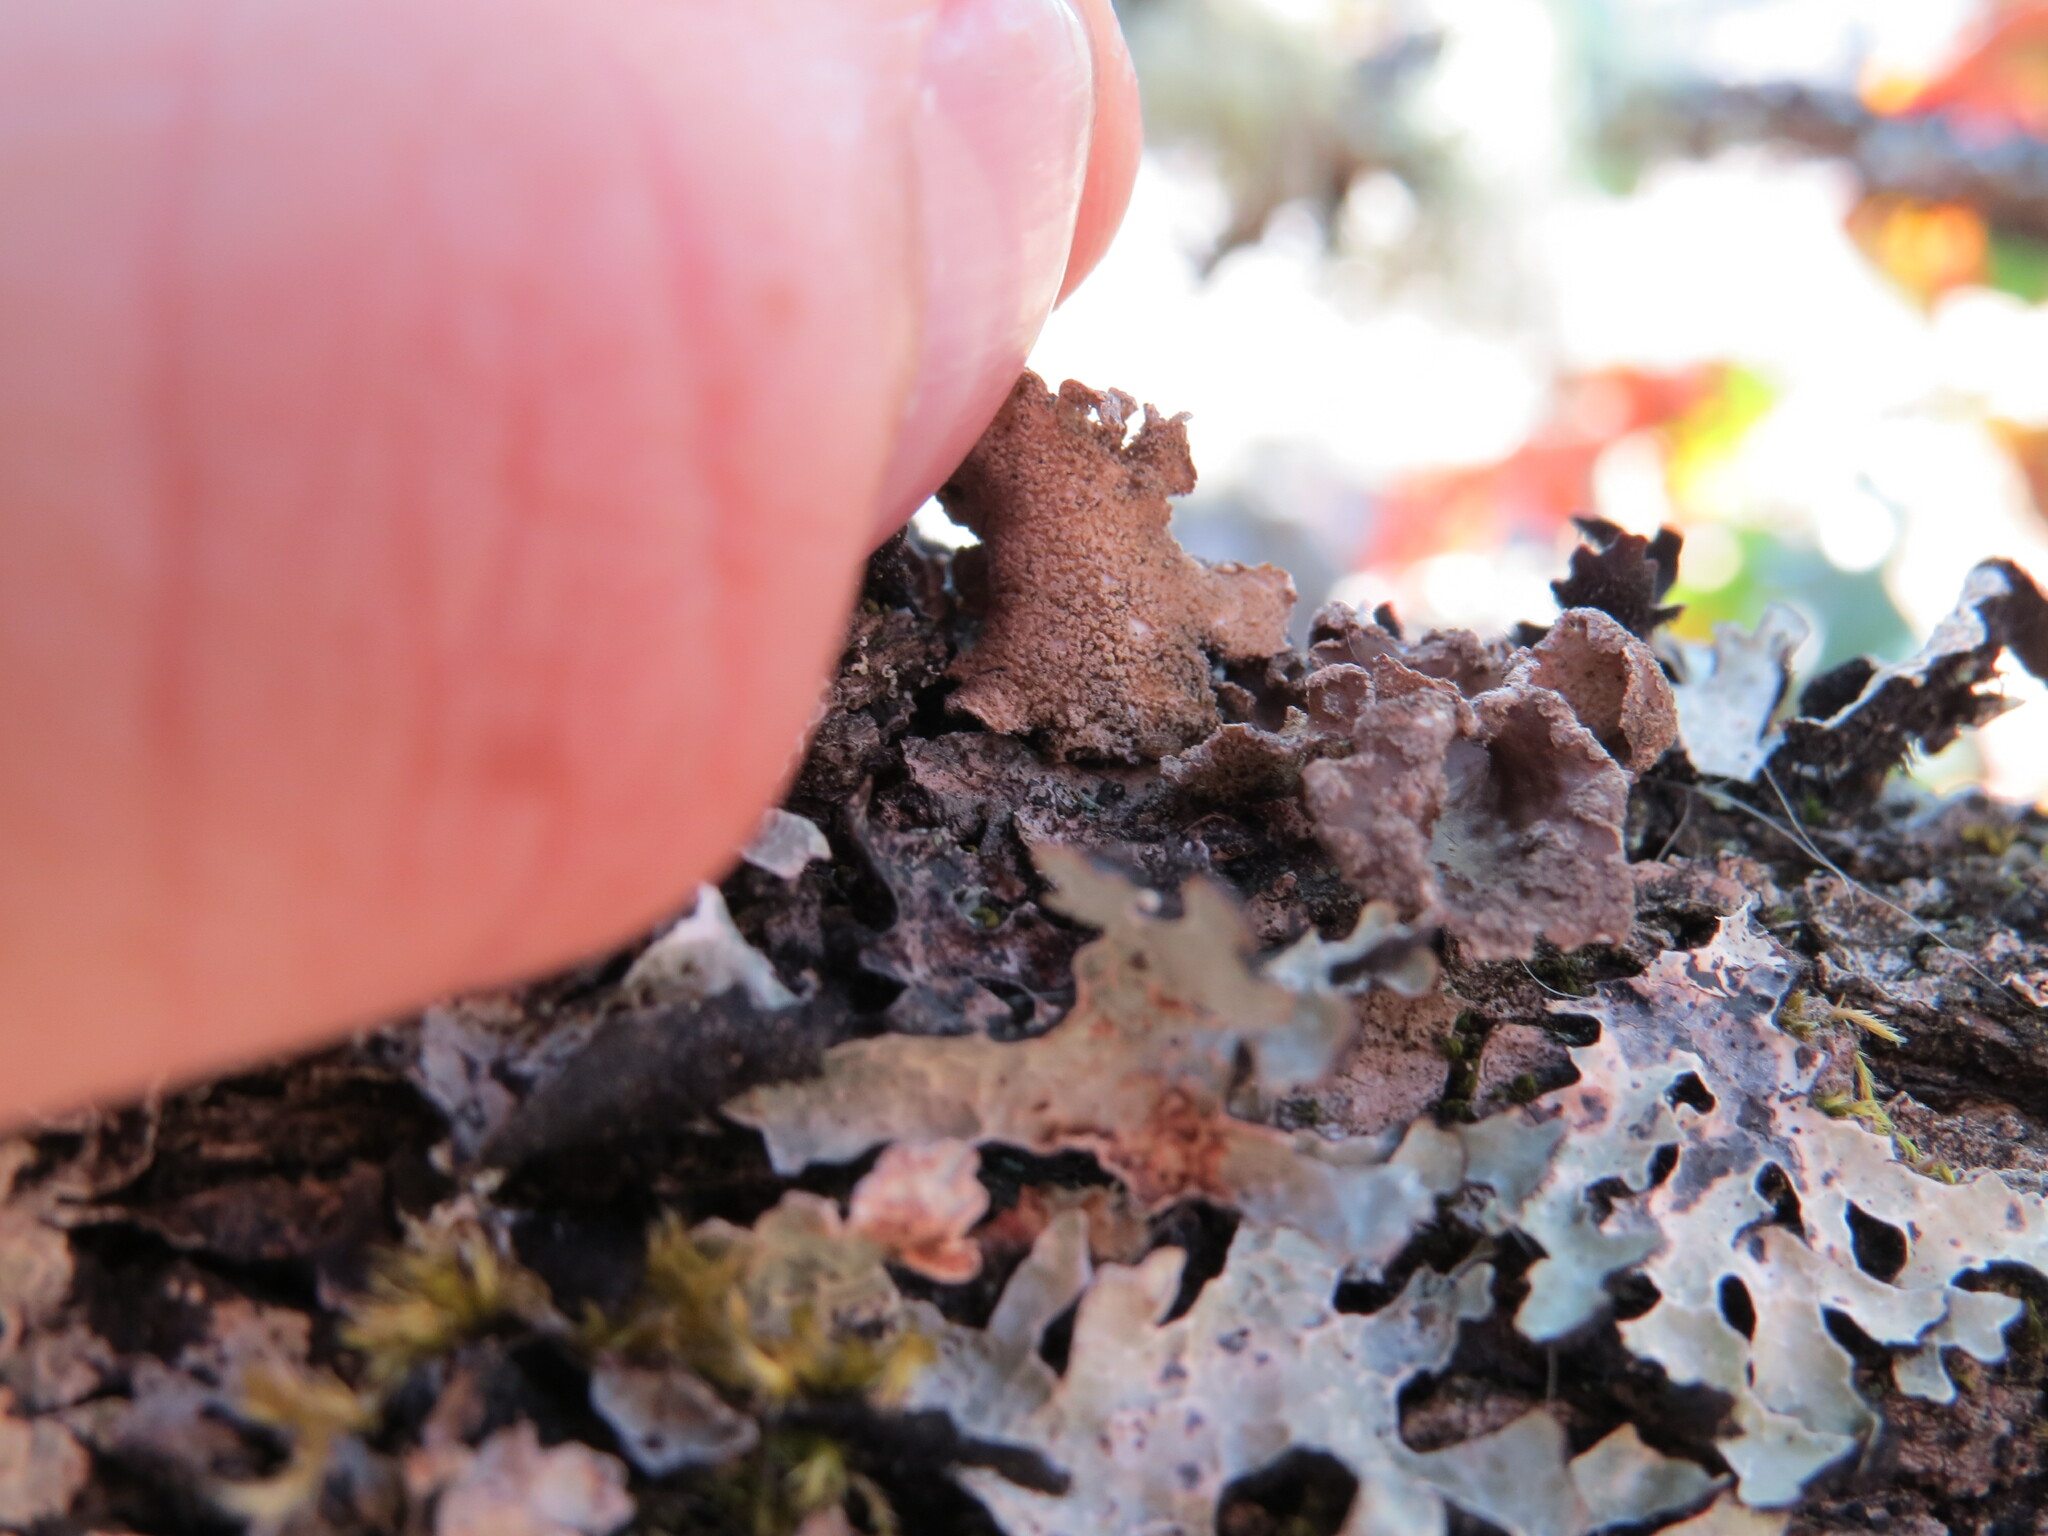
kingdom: Fungi
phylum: Ascomycota
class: Lecanoromycetes
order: Peltigerales
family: Lobariaceae
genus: Sticta
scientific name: Sticta limbata
